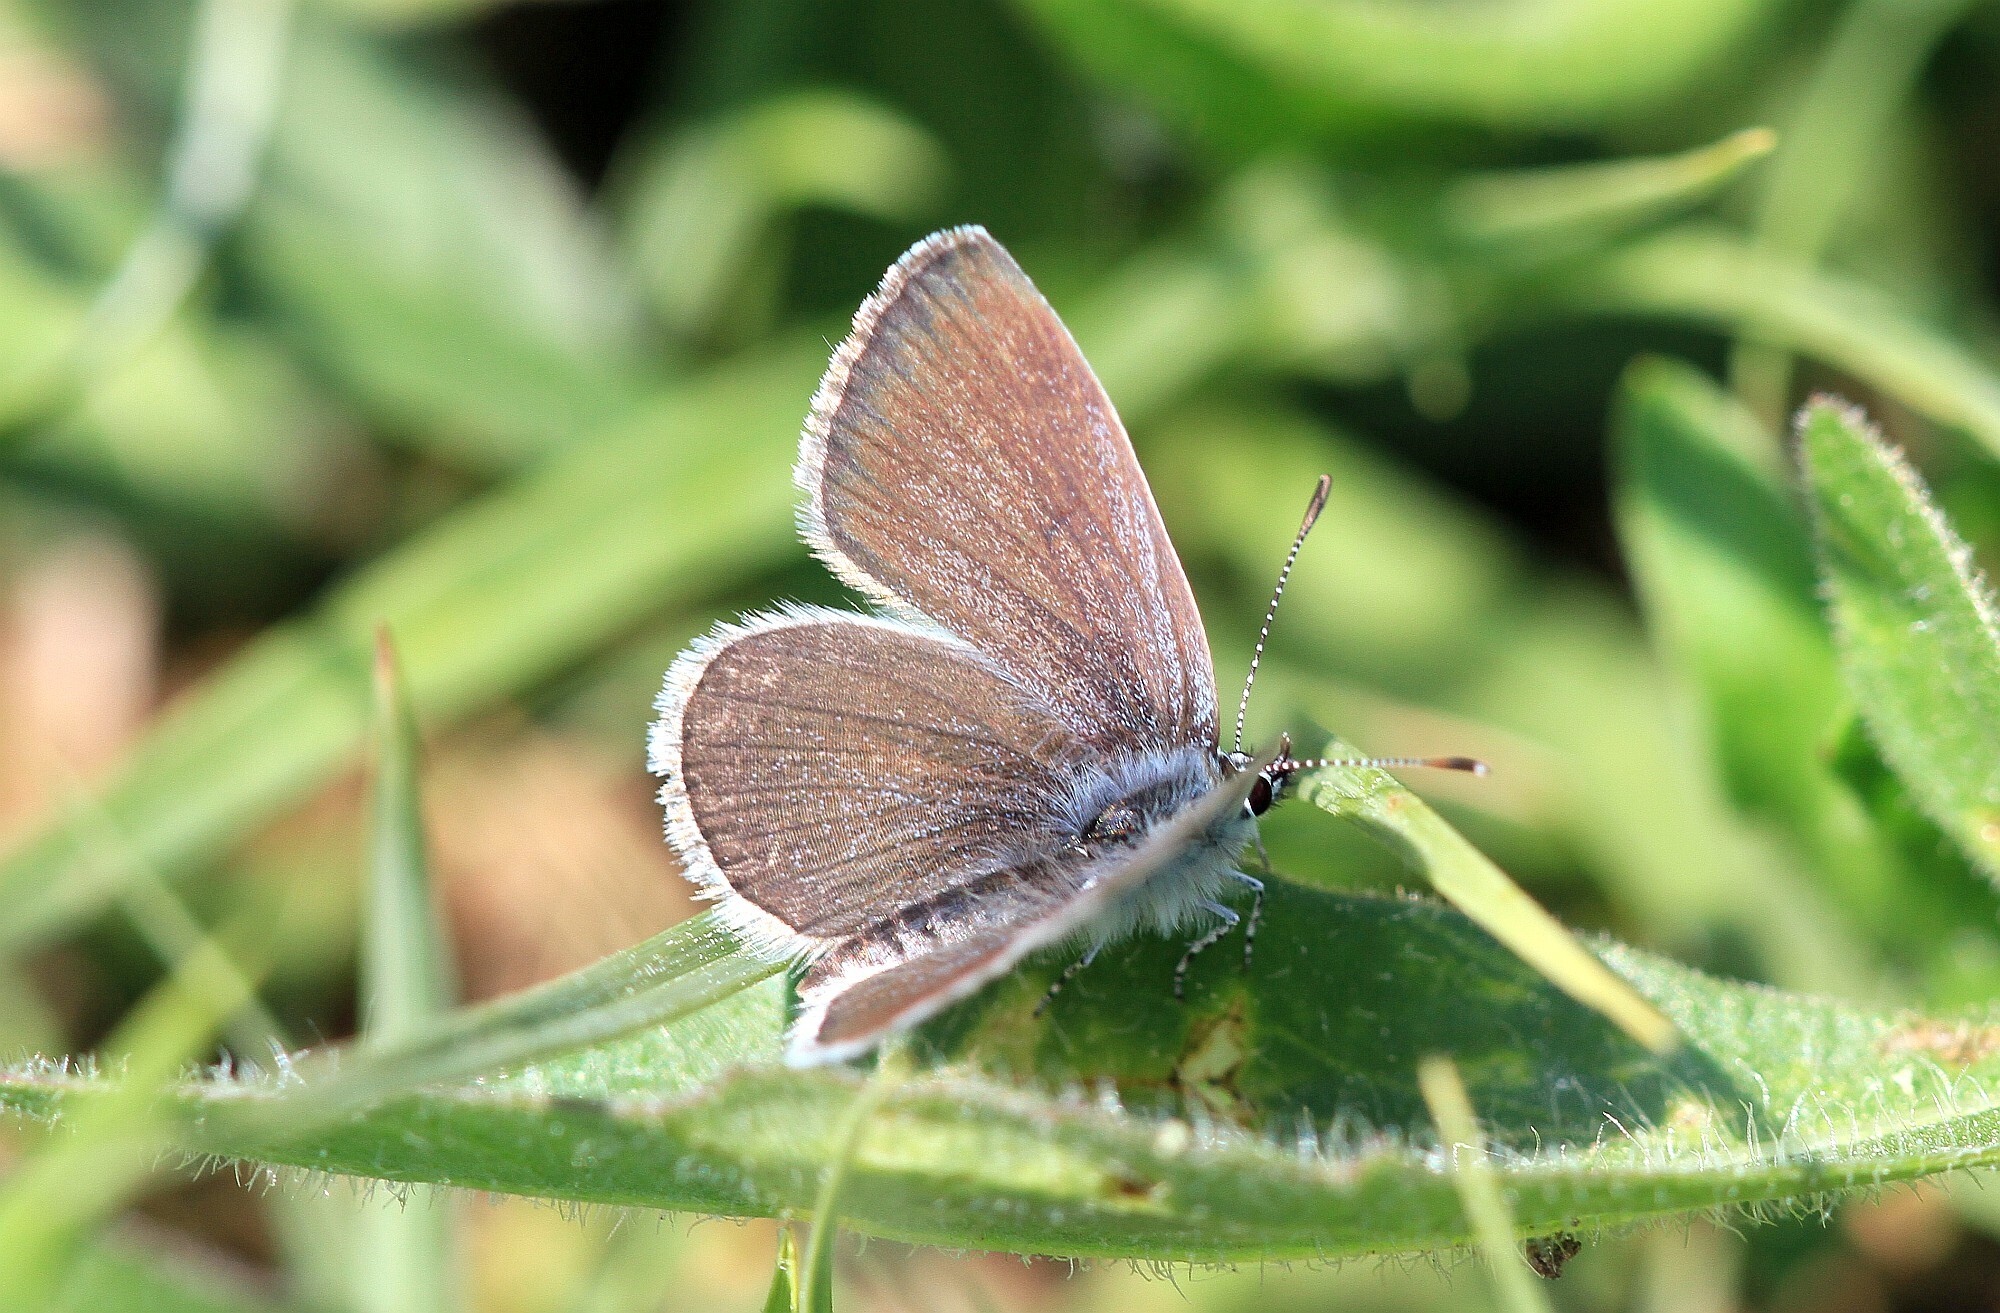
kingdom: Animalia
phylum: Arthropoda
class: Insecta
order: Lepidoptera
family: Lycaenidae
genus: Cupido
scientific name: Cupido minimus
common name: Small blue
